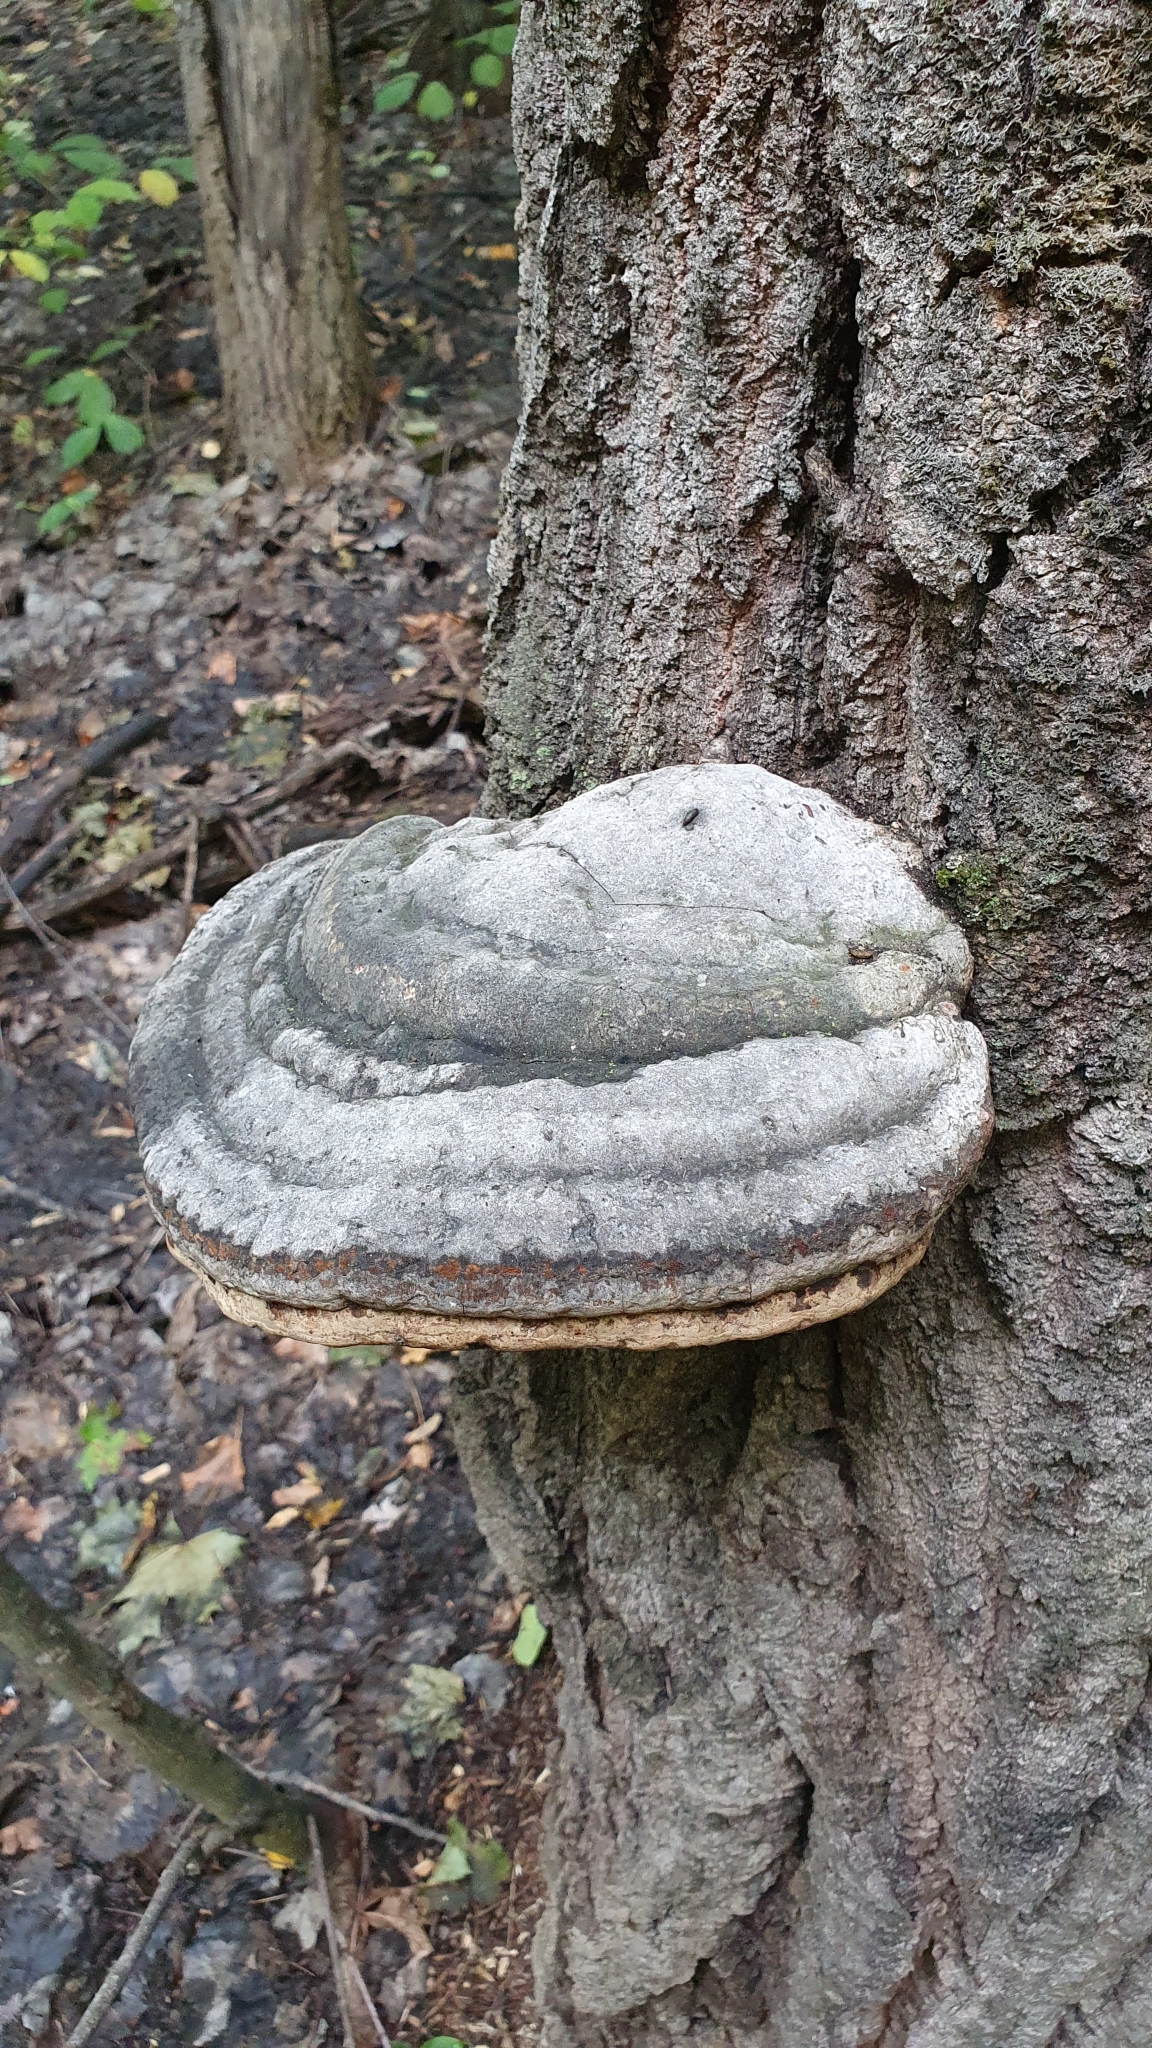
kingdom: Fungi
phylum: Basidiomycota
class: Agaricomycetes
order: Polyporales
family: Polyporaceae
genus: Fomes
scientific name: Fomes fomentarius
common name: Hoof fungus
